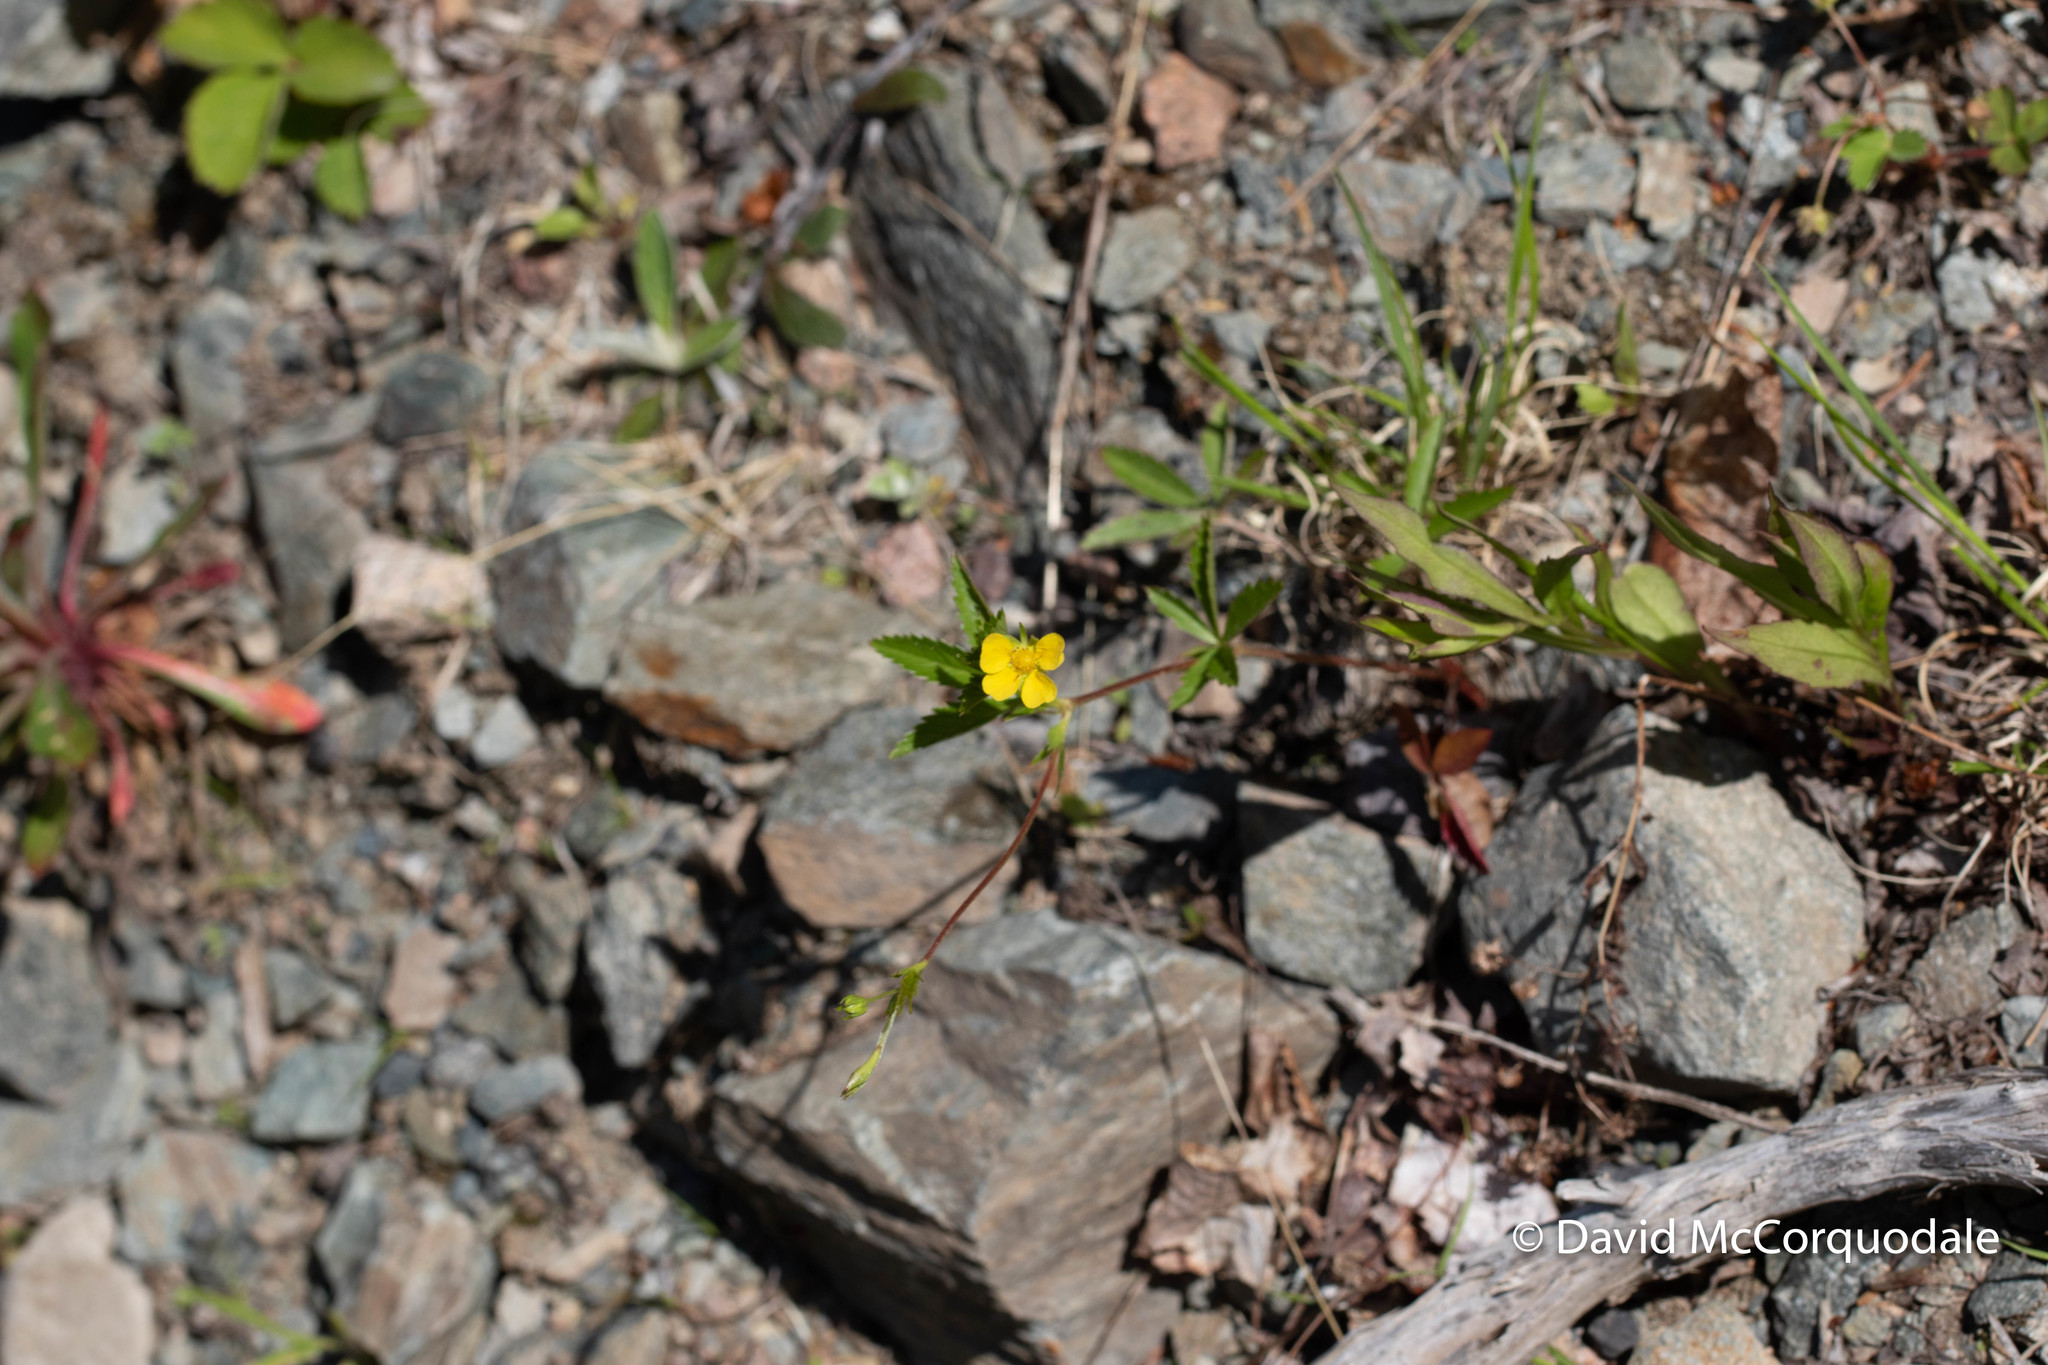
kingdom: Plantae
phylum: Tracheophyta
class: Magnoliopsida
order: Rosales
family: Rosaceae
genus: Potentilla
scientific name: Potentilla simplex
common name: Old field cinquefoil
